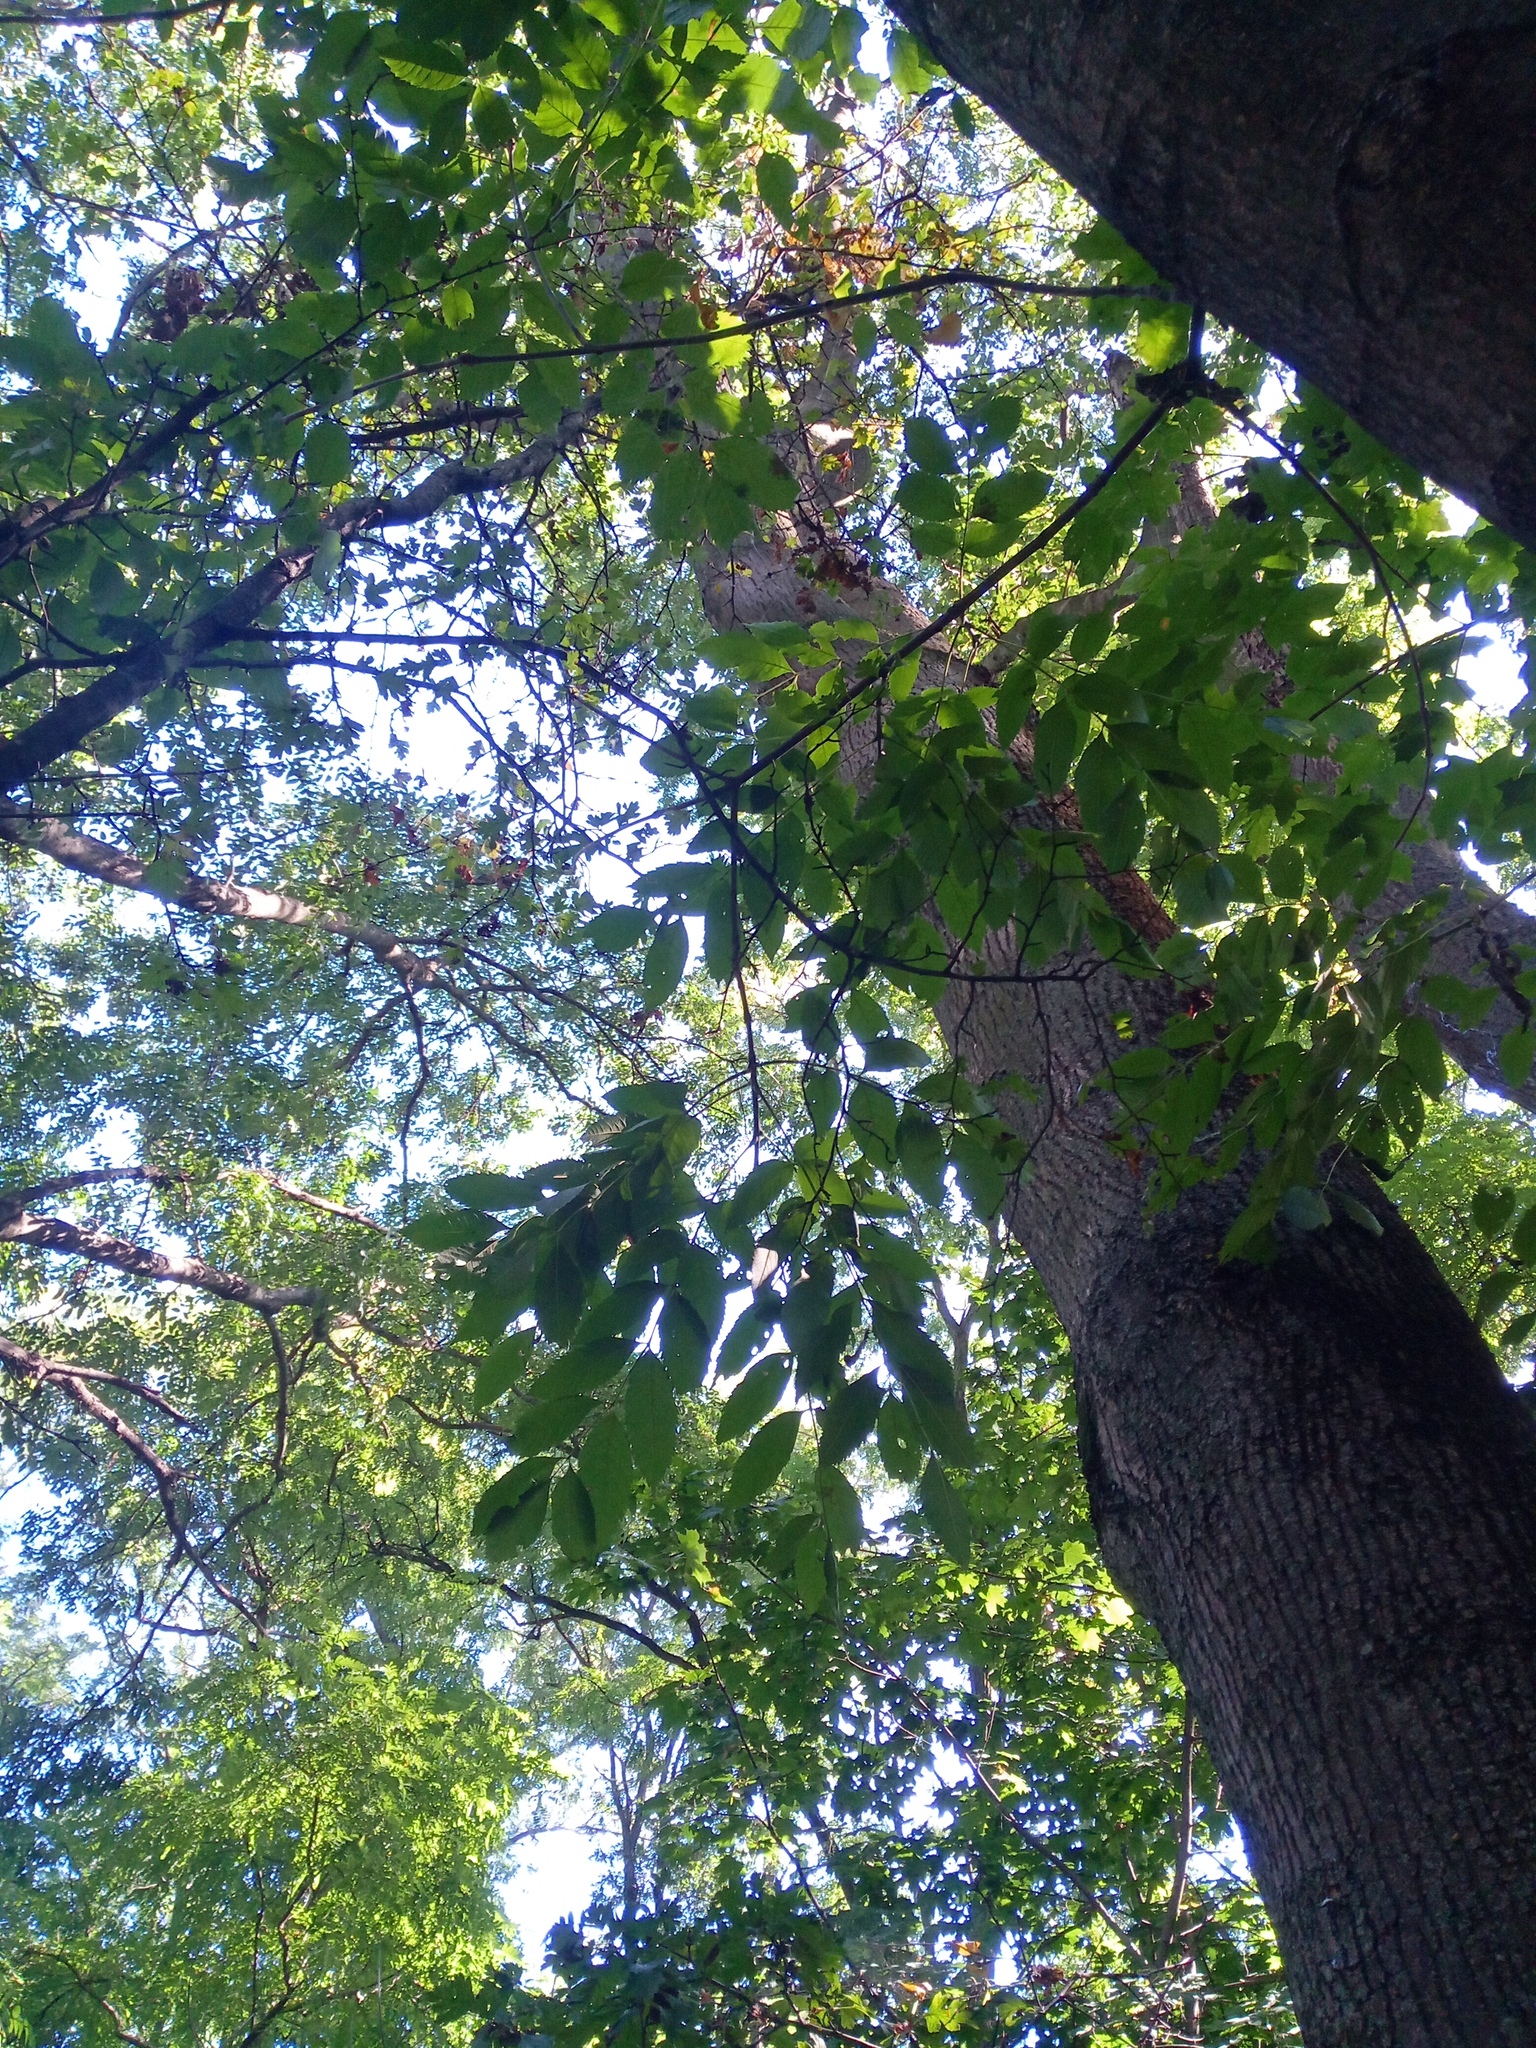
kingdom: Plantae
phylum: Tracheophyta
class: Magnoliopsida
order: Lamiales
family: Oleaceae
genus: Fraxinus
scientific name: Fraxinus excelsior
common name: European ash
